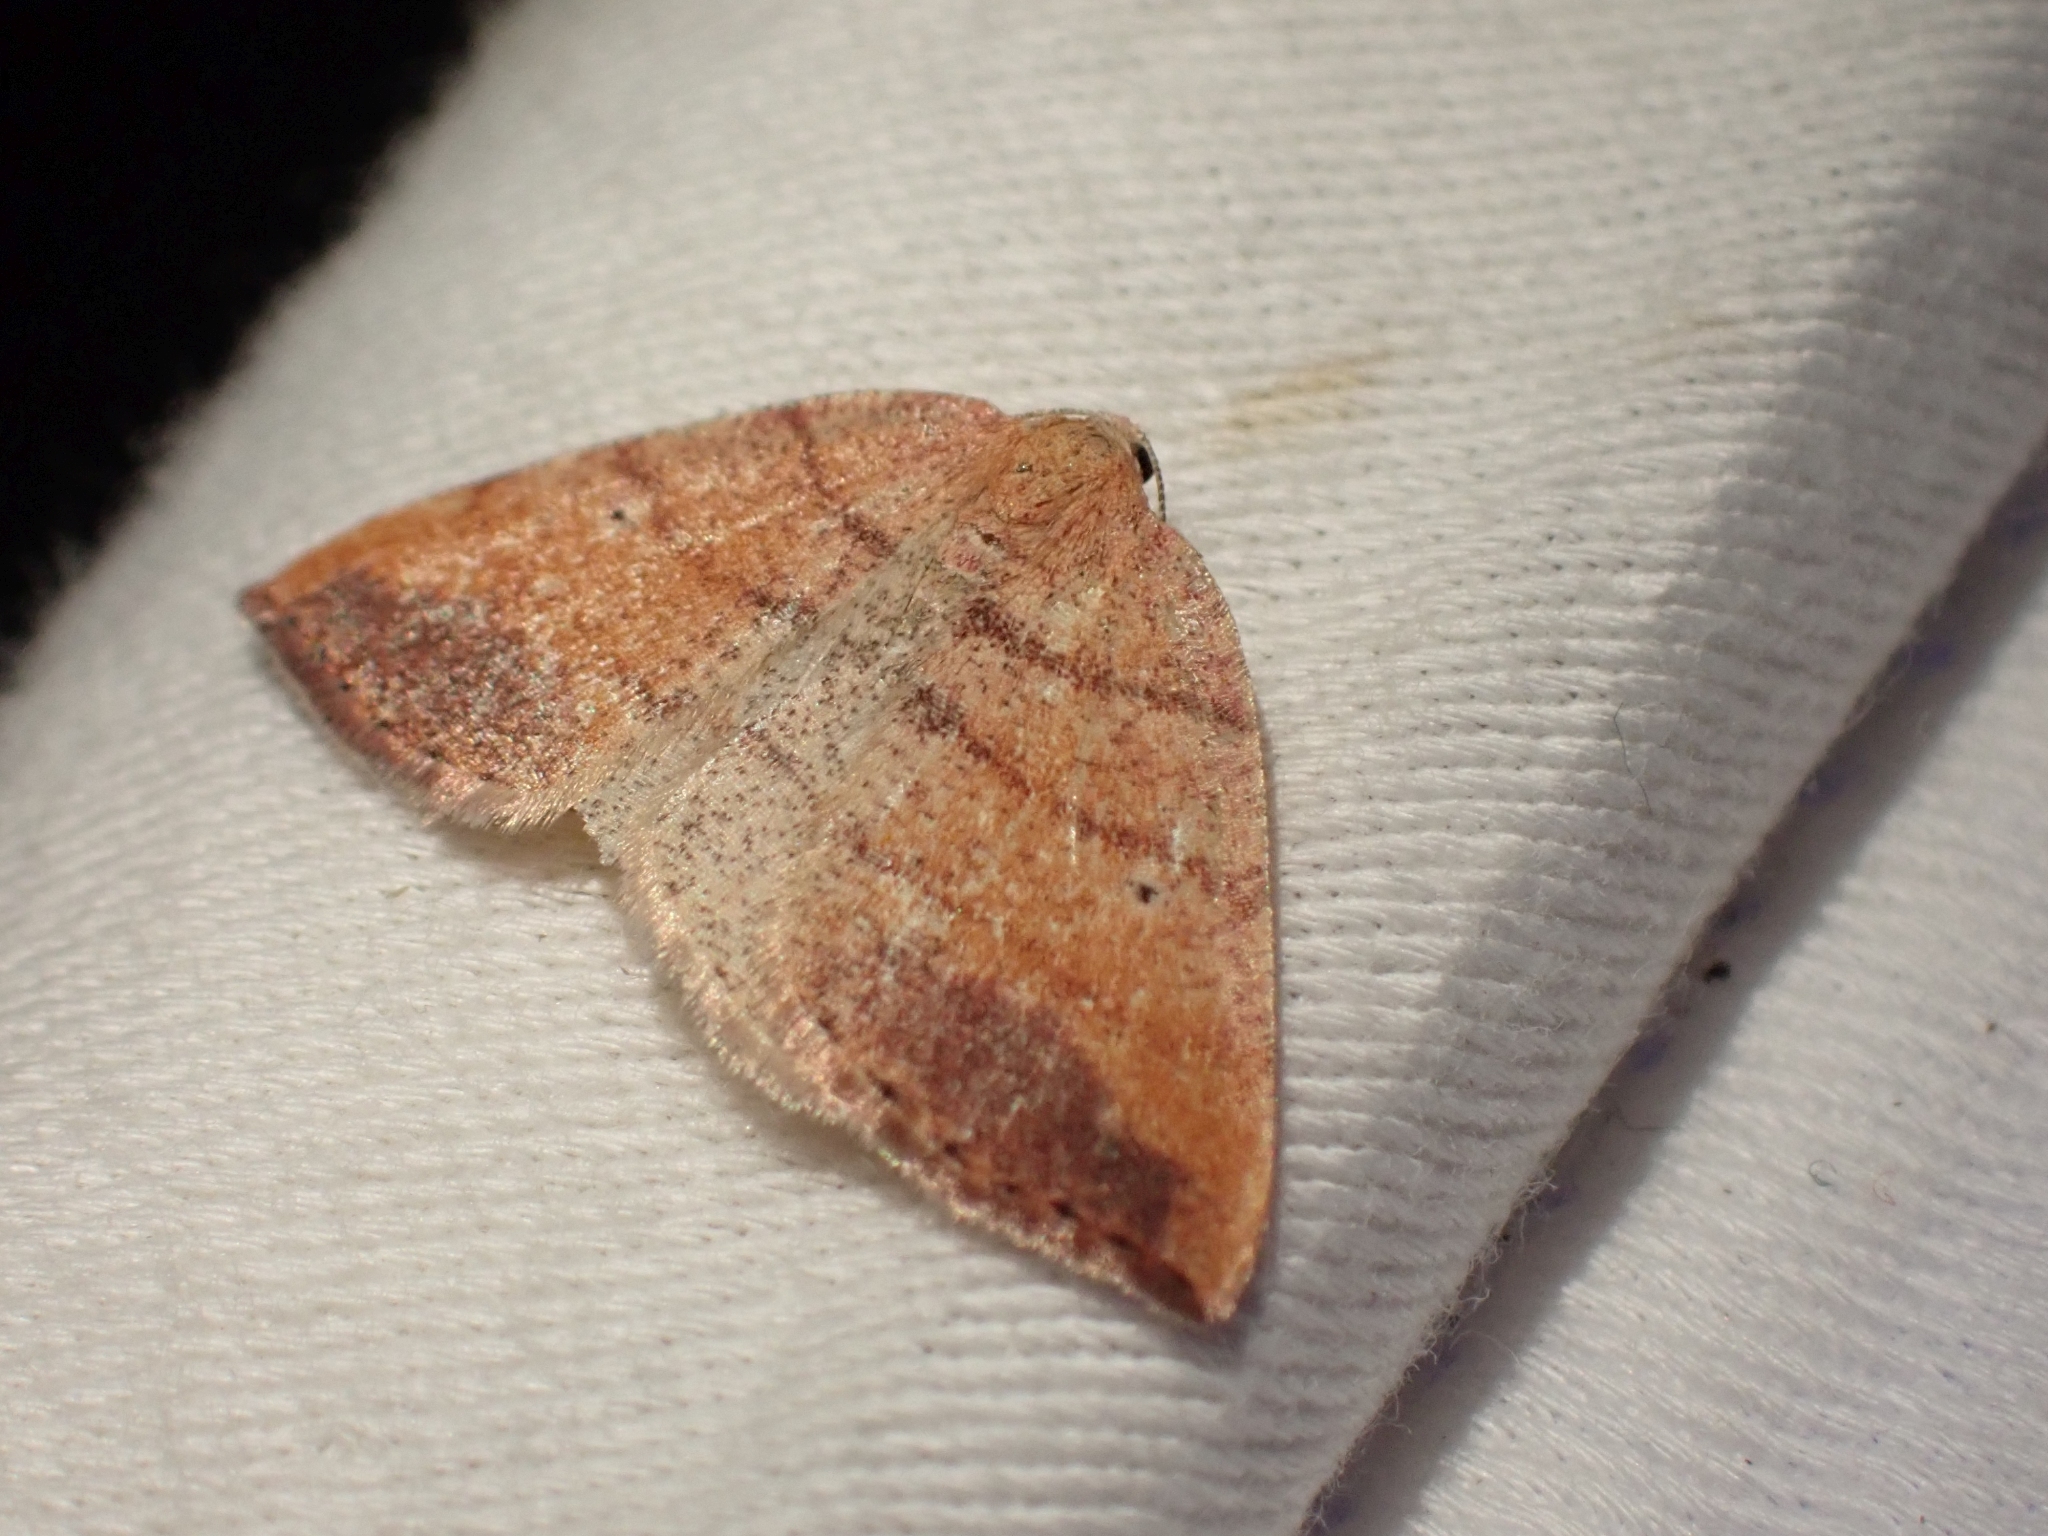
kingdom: Animalia
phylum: Arthropoda
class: Insecta
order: Lepidoptera
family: Geometridae
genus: Drepanulatrix
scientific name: Drepanulatrix carnearia
